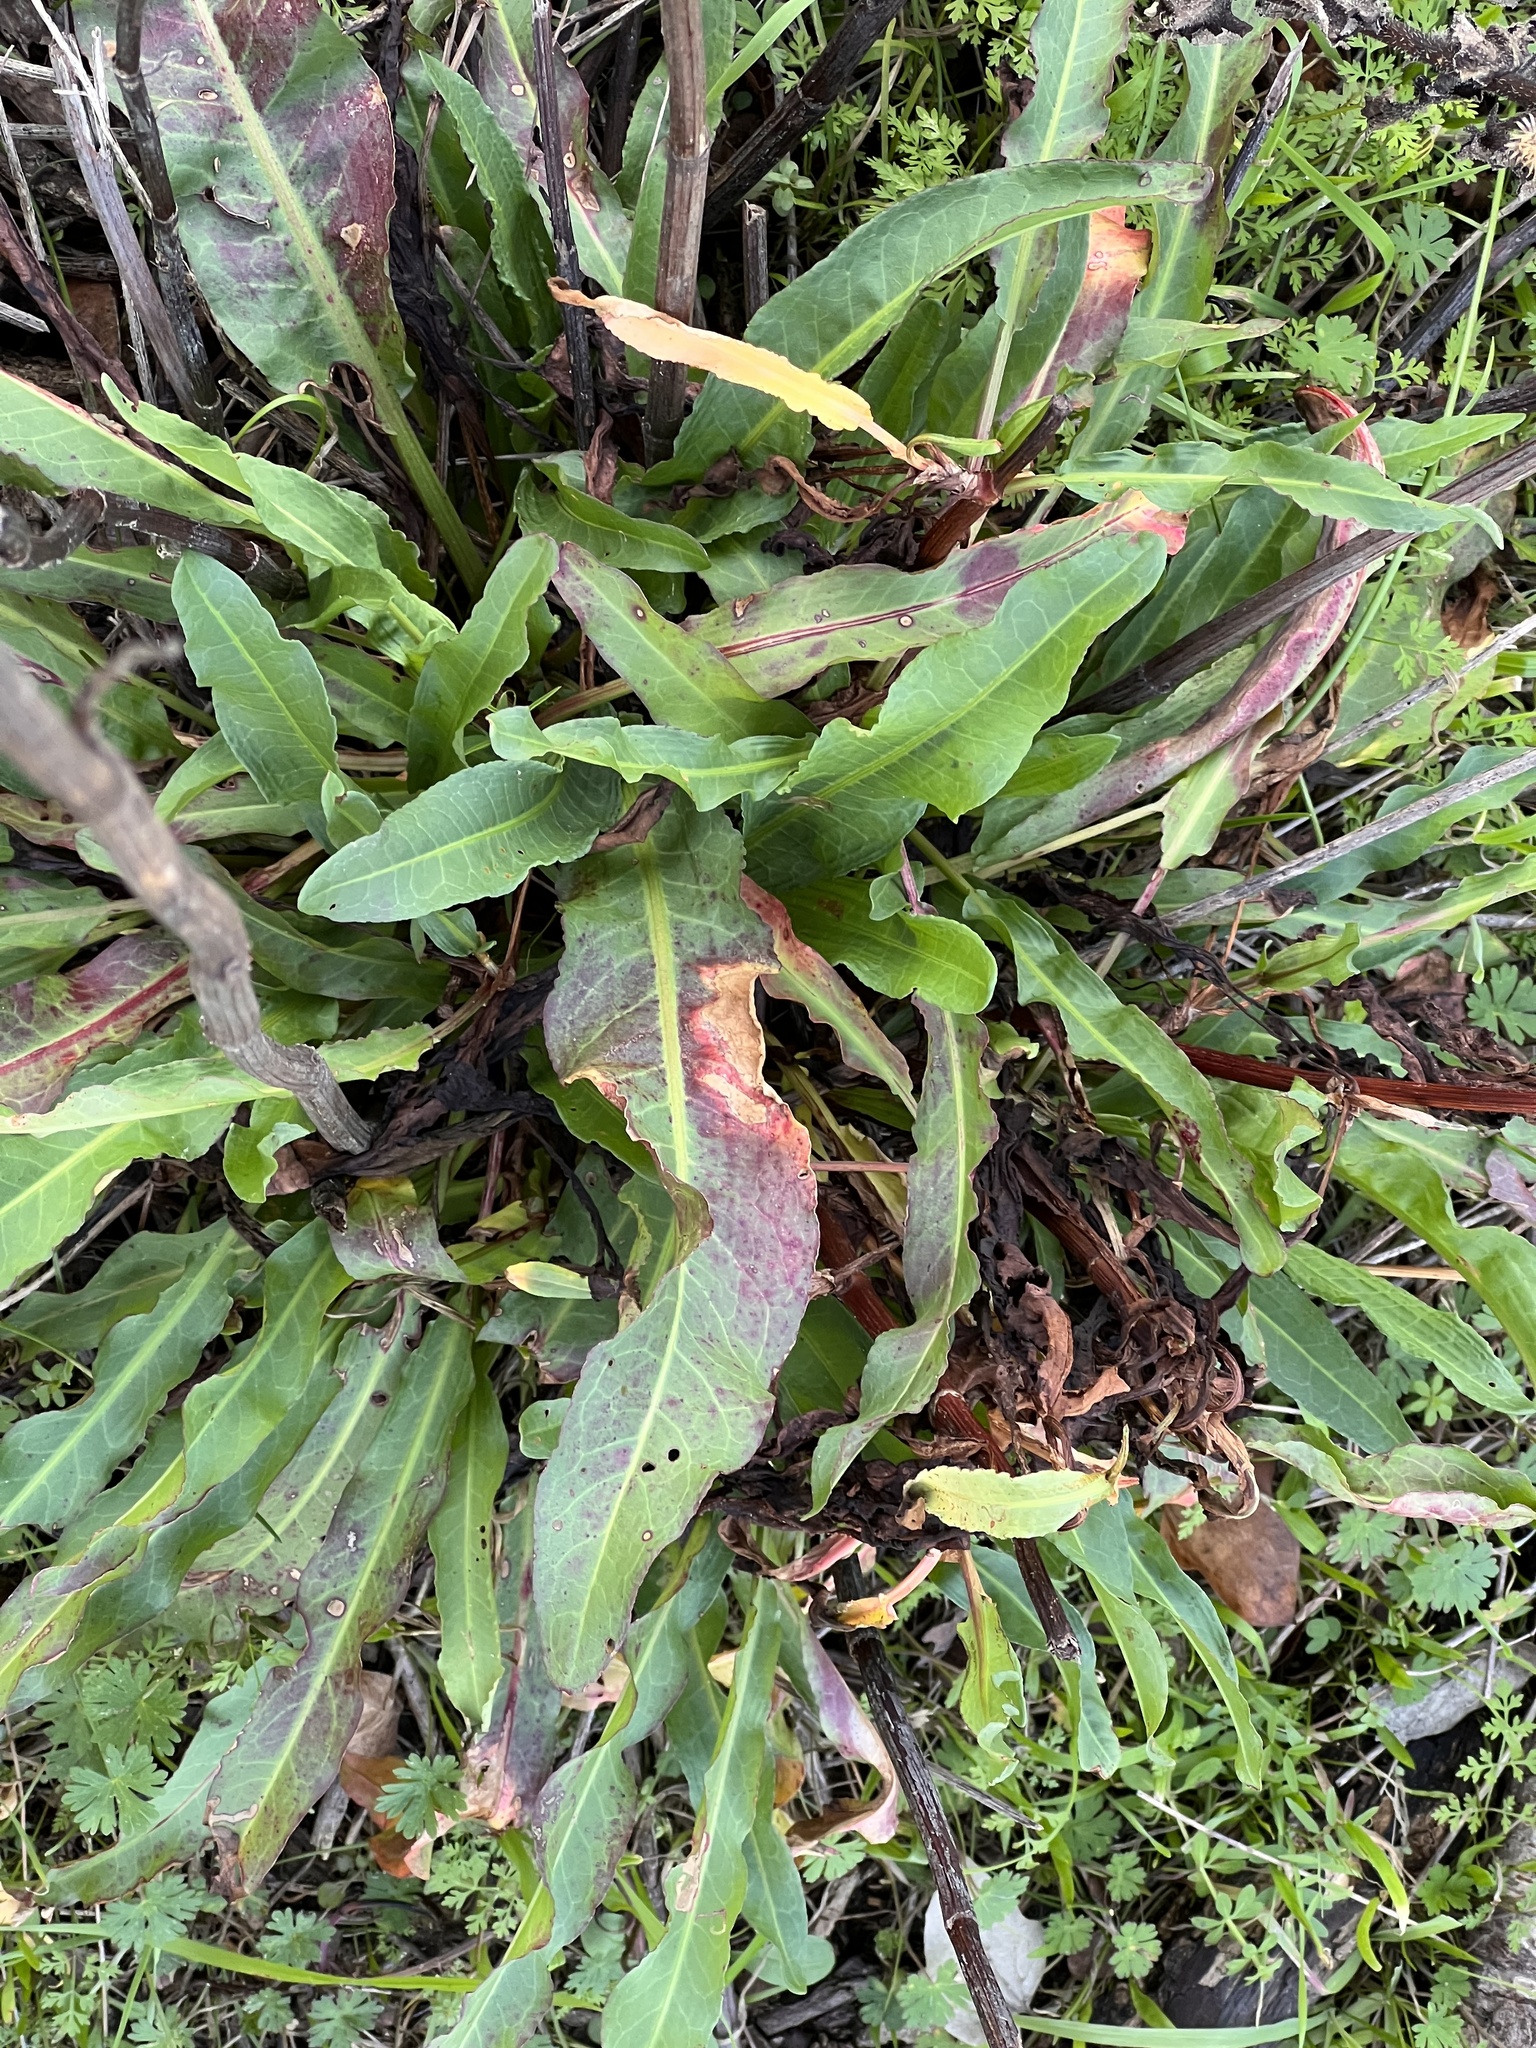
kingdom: Plantae
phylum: Tracheophyta
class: Magnoliopsida
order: Caryophyllales
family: Polygonaceae
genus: Rumex
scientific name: Rumex crispus
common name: Curled dock
